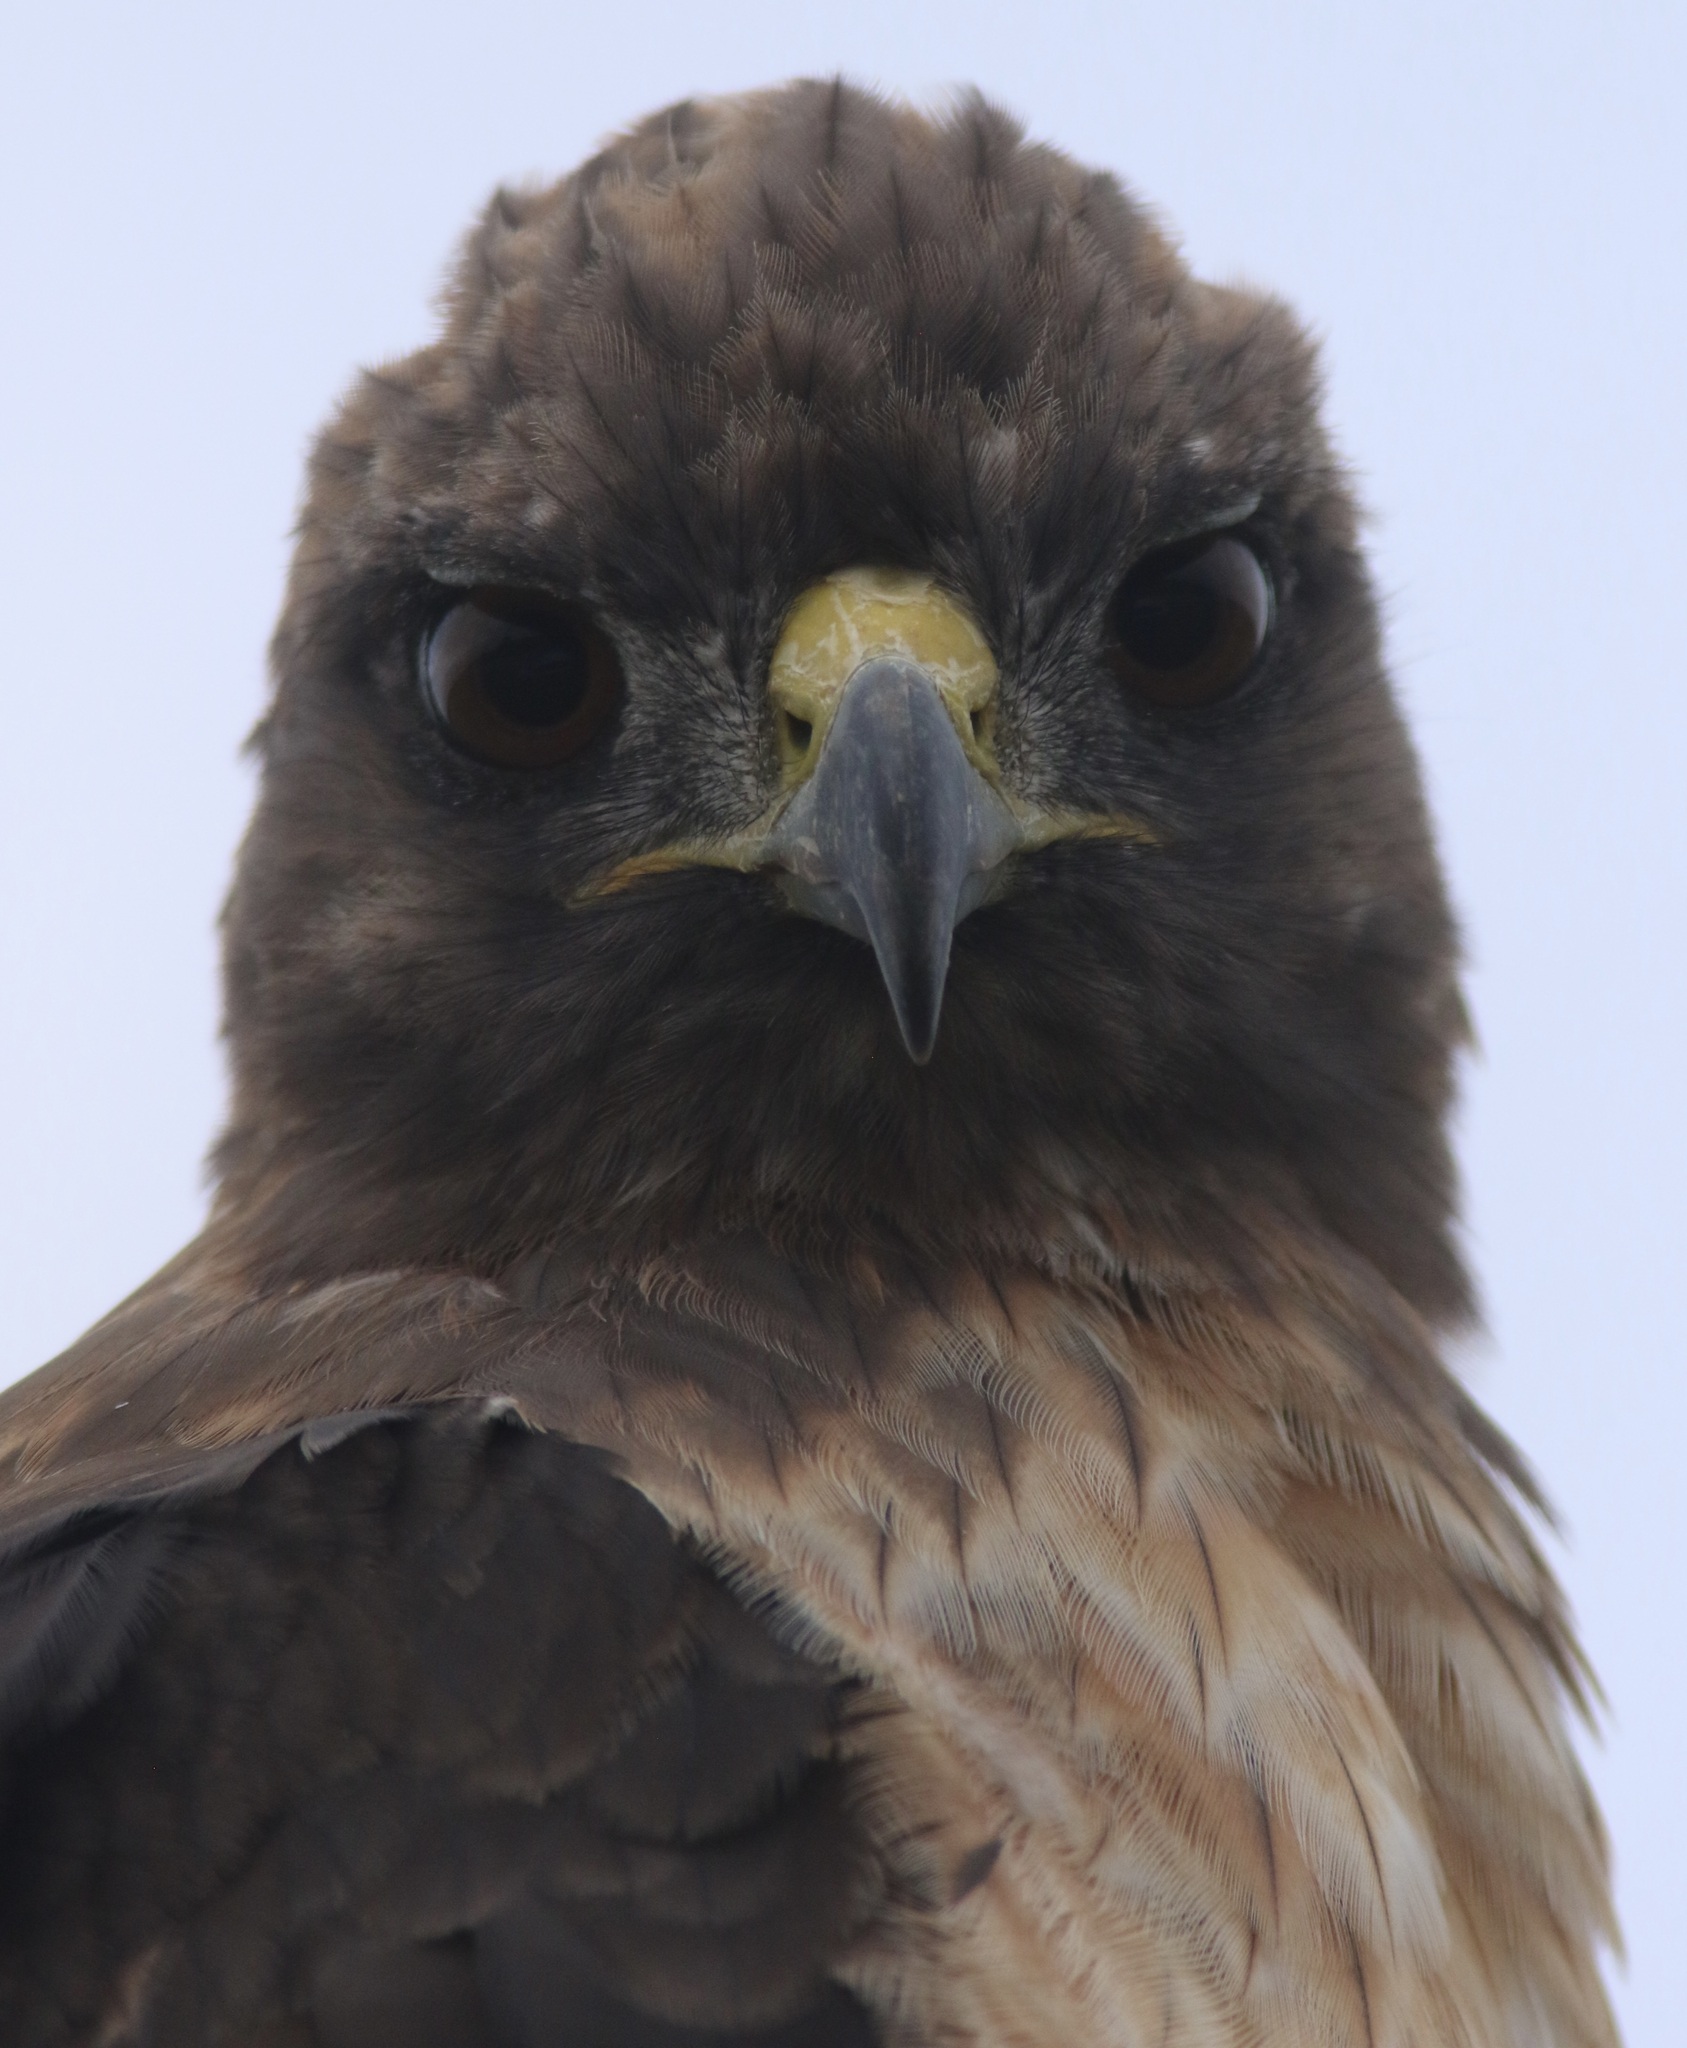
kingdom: Animalia
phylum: Chordata
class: Aves
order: Accipitriformes
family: Accipitridae
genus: Buteo
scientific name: Buteo jamaicensis
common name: Red-tailed hawk
